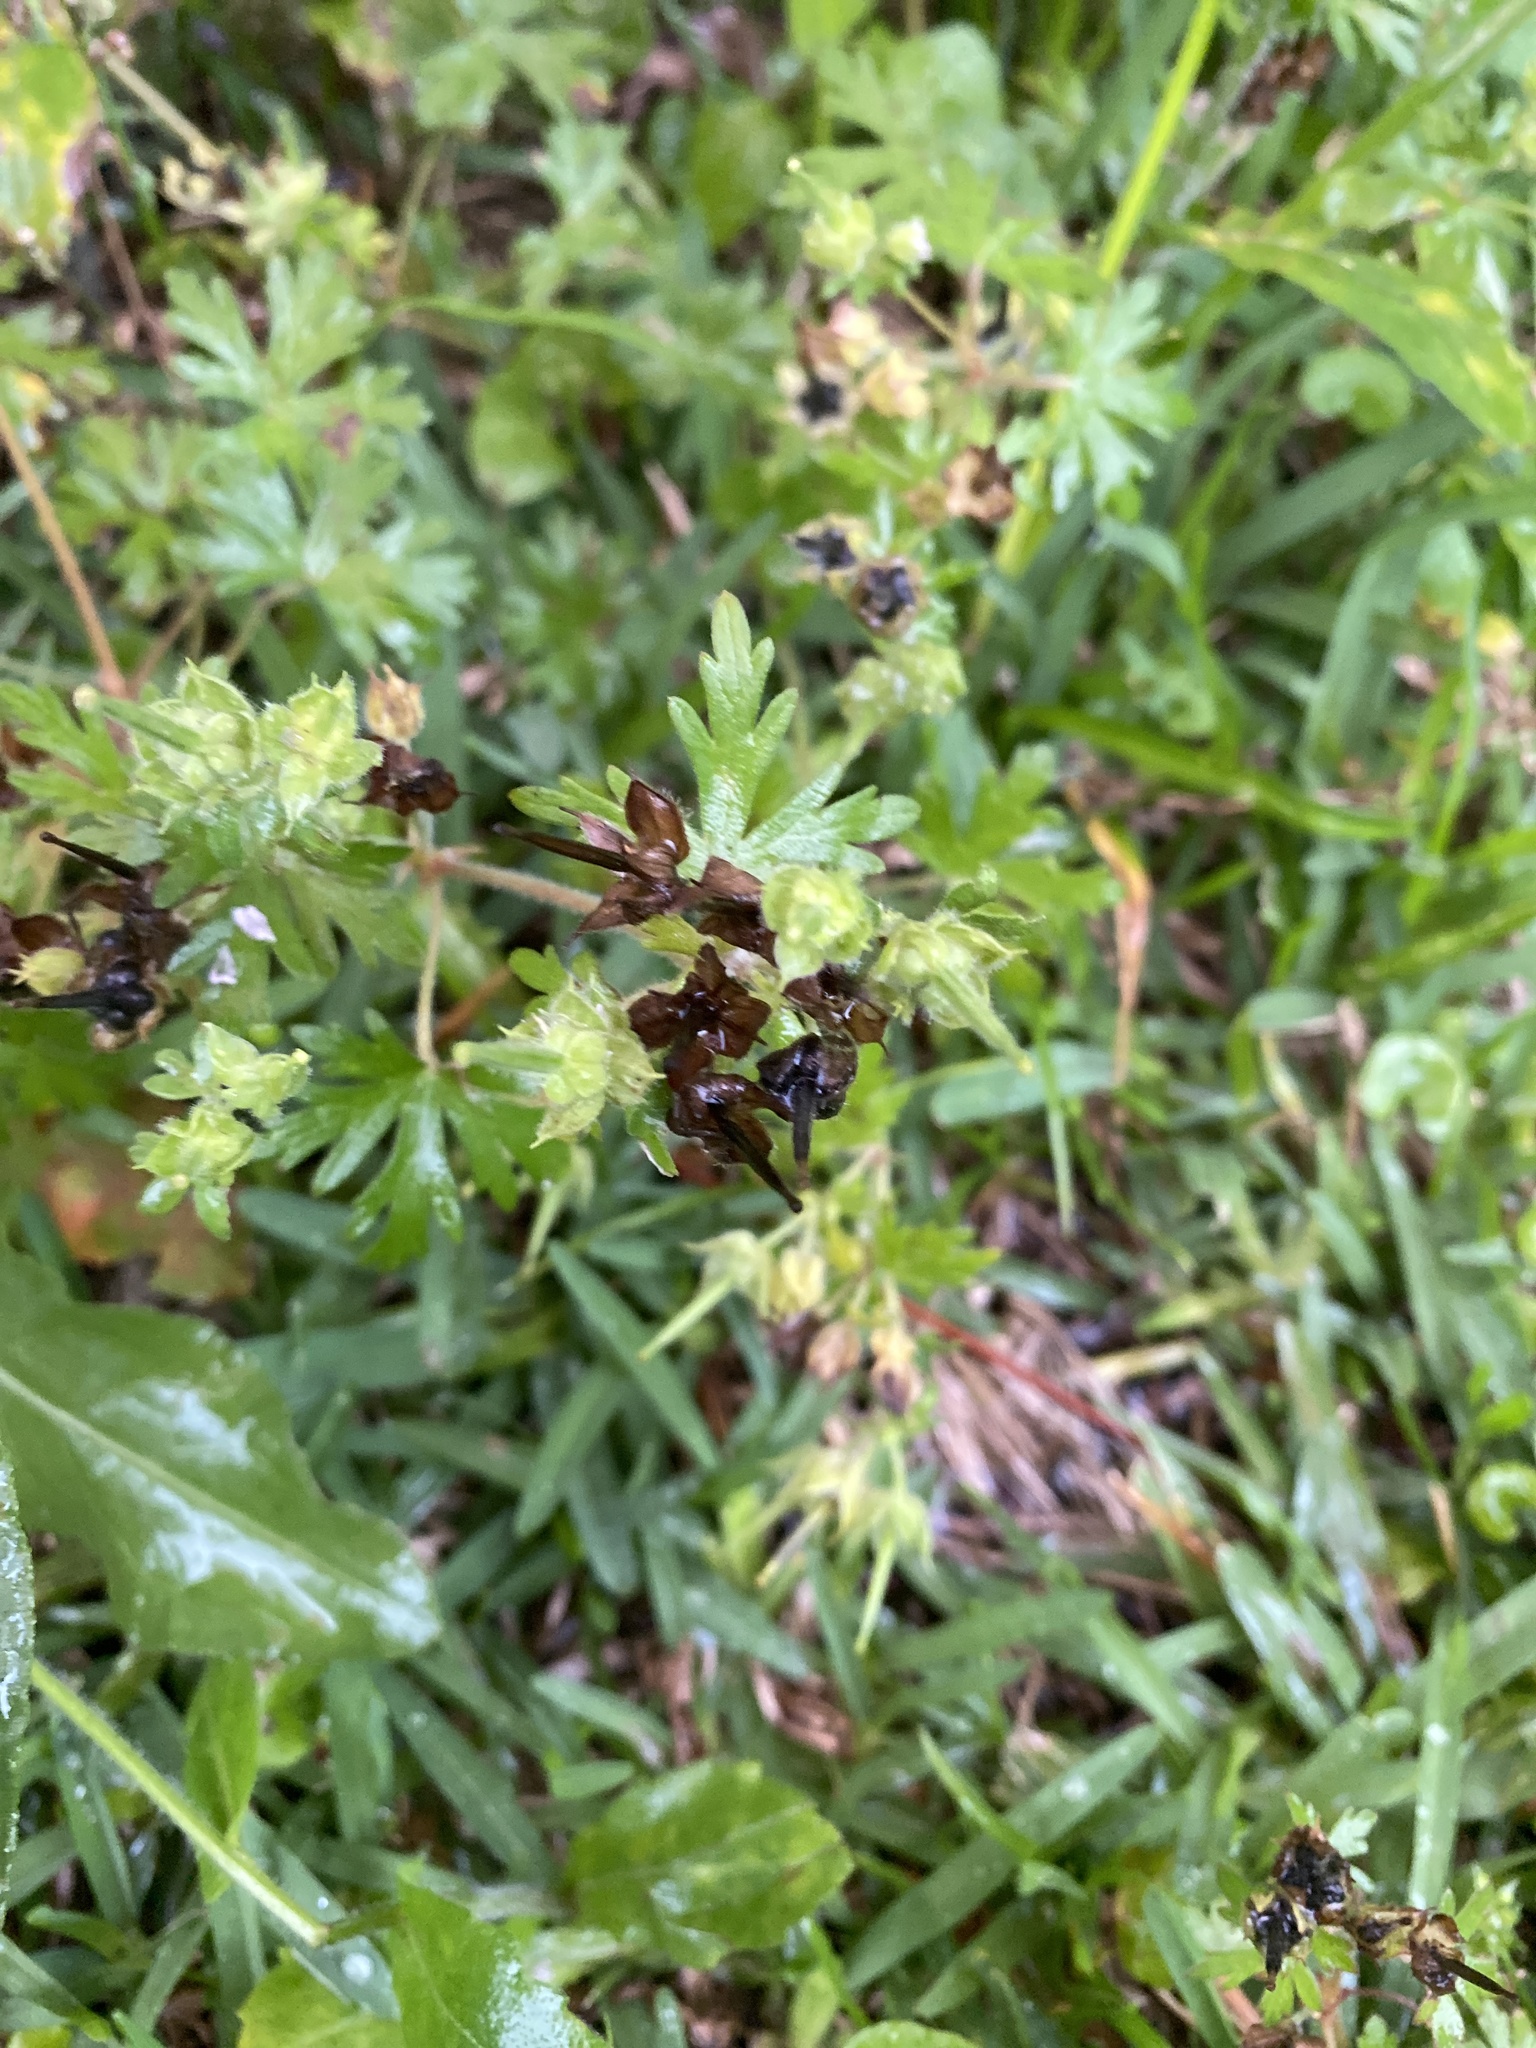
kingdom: Plantae
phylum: Tracheophyta
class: Magnoliopsida
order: Geraniales
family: Geraniaceae
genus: Geranium
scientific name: Geranium carolinianum
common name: Carolina crane's-bill
